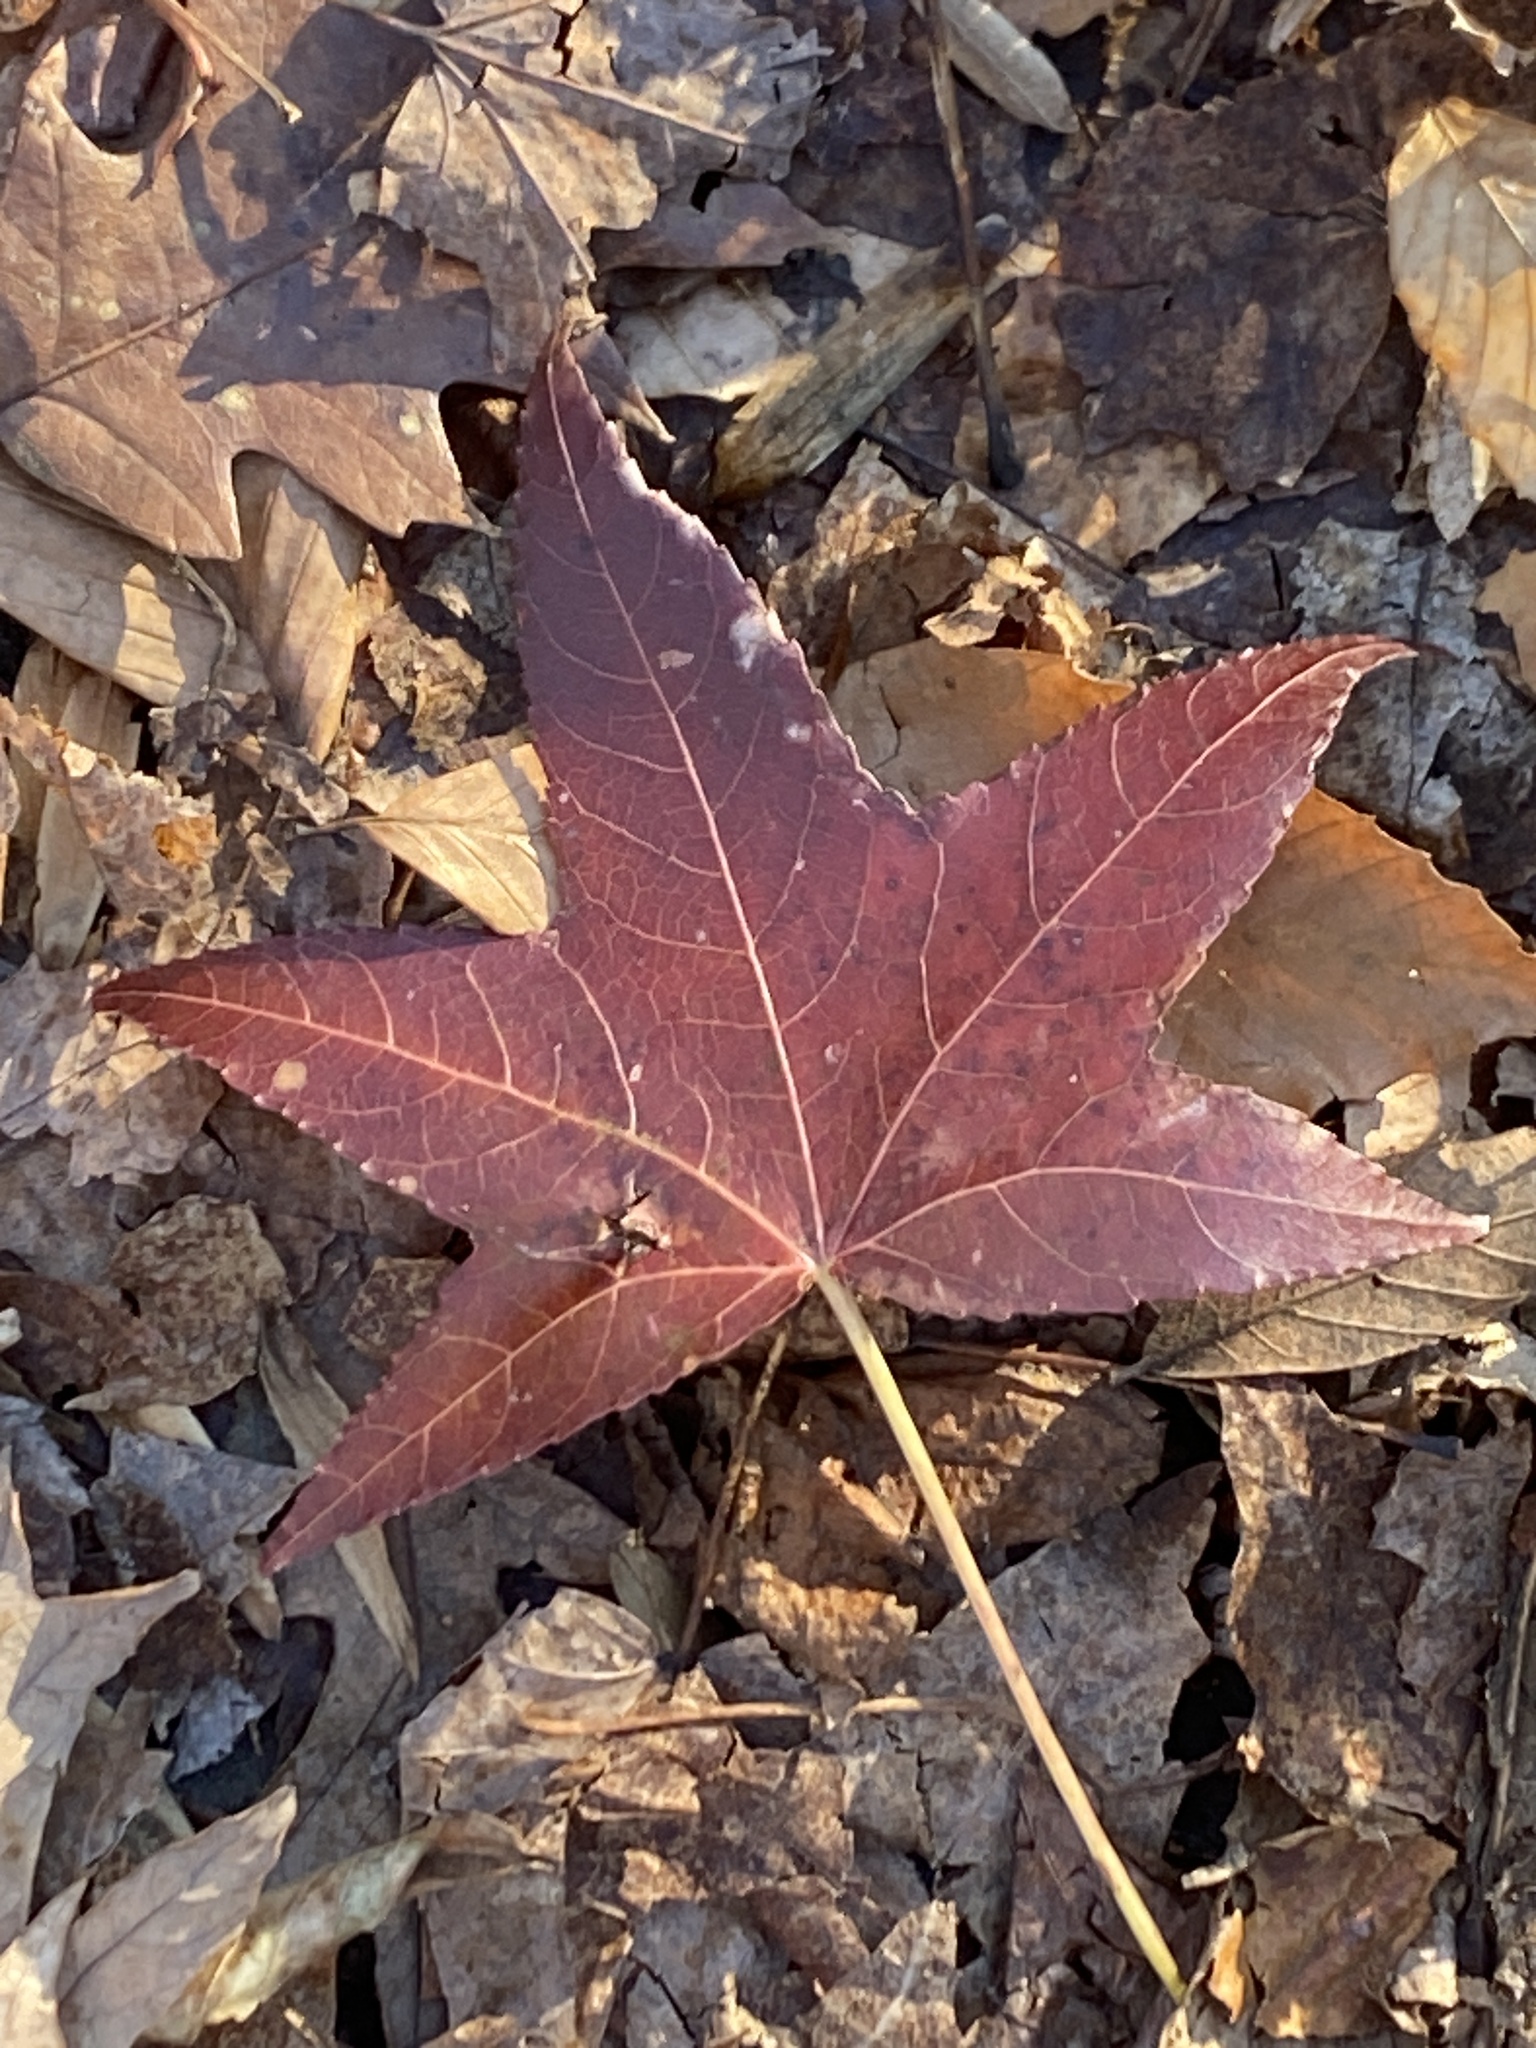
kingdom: Plantae
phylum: Tracheophyta
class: Magnoliopsida
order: Saxifragales
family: Altingiaceae
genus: Liquidambar
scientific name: Liquidambar styraciflua
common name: Sweet gum
